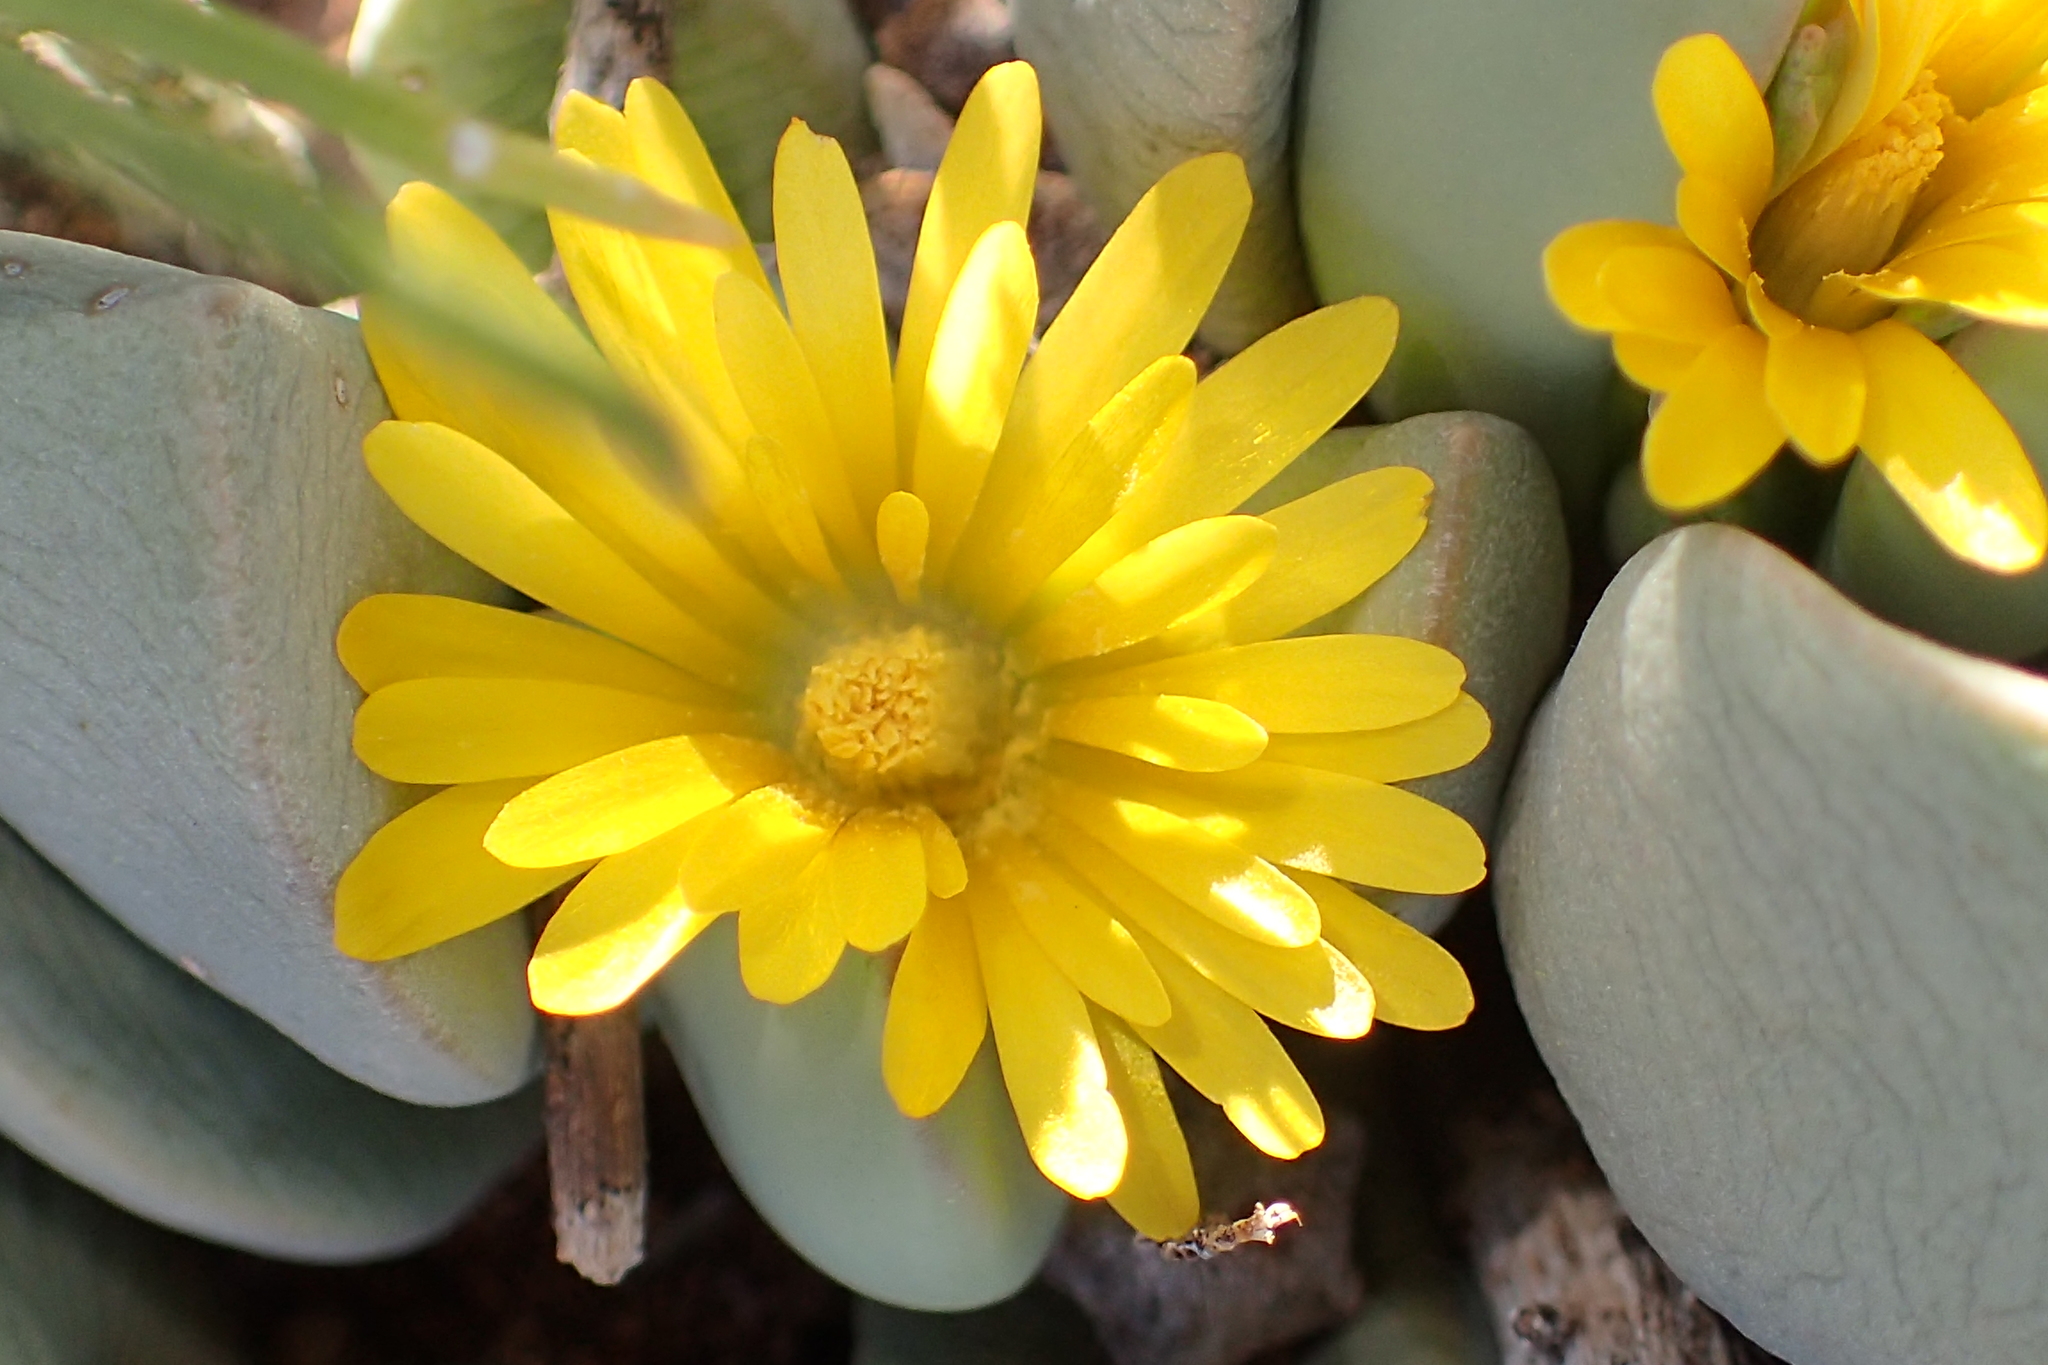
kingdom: Plantae
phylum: Tracheophyta
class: Magnoliopsida
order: Caryophyllales
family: Aizoaceae
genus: Bijlia
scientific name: Bijlia dilatata
